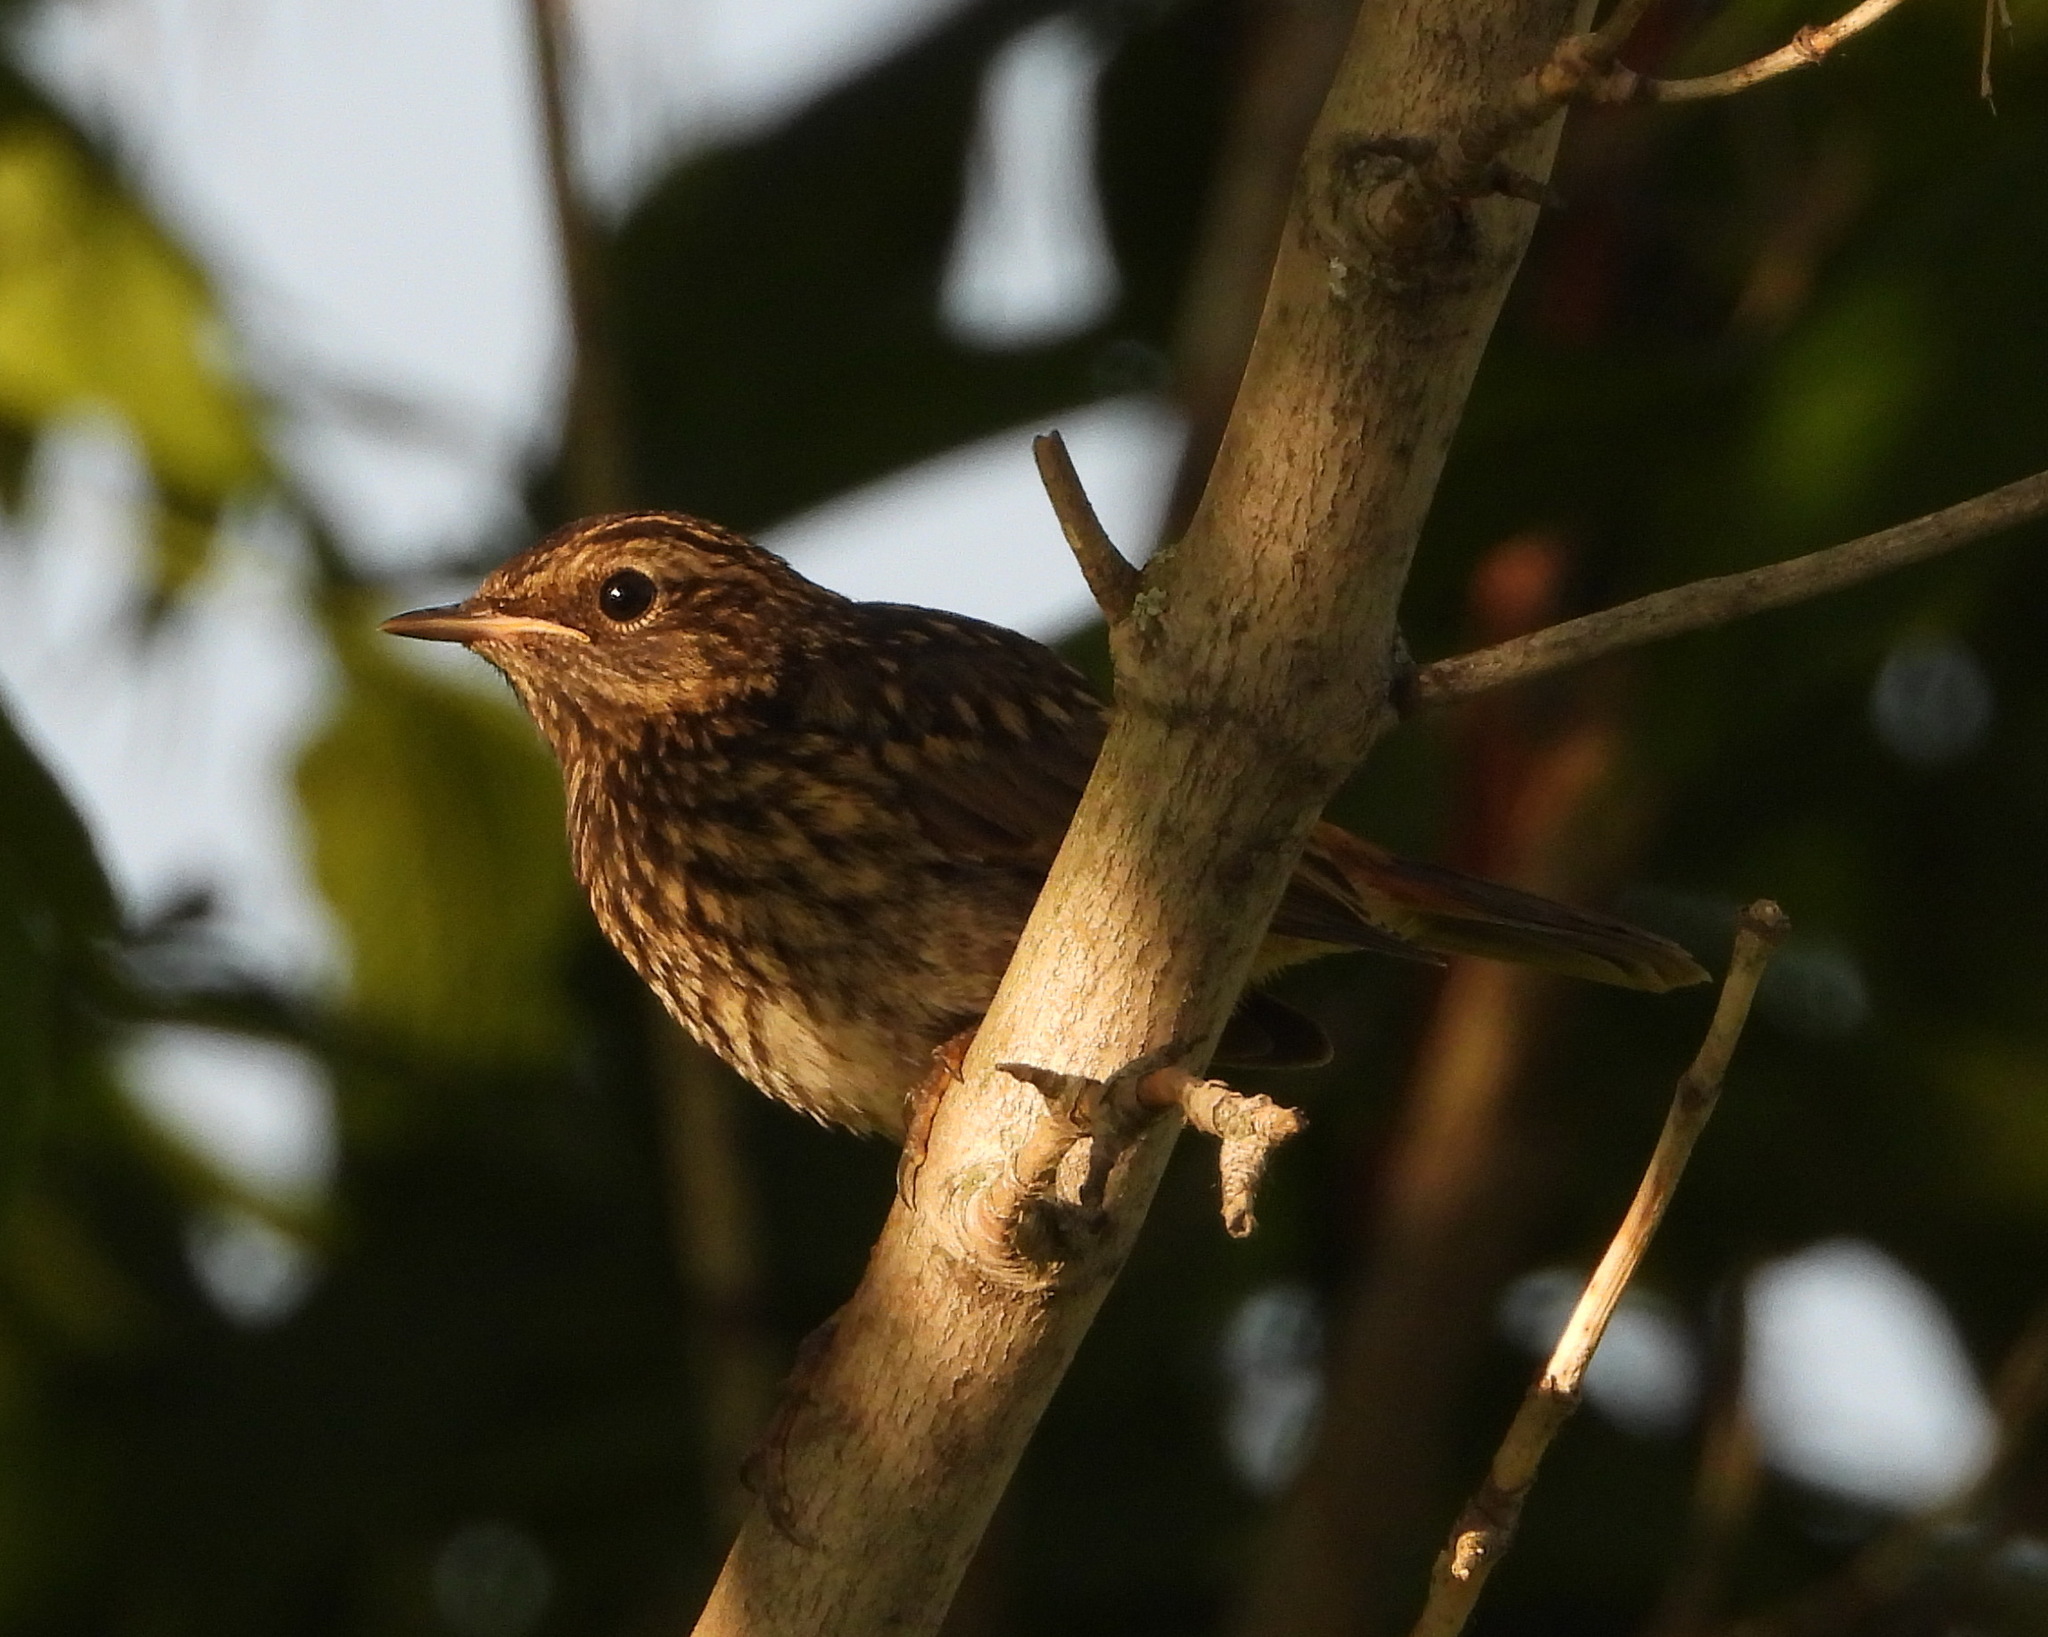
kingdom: Animalia
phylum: Chordata
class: Aves
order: Passeriformes
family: Muscicapidae
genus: Luscinia
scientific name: Luscinia svecica
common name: Bluethroat
